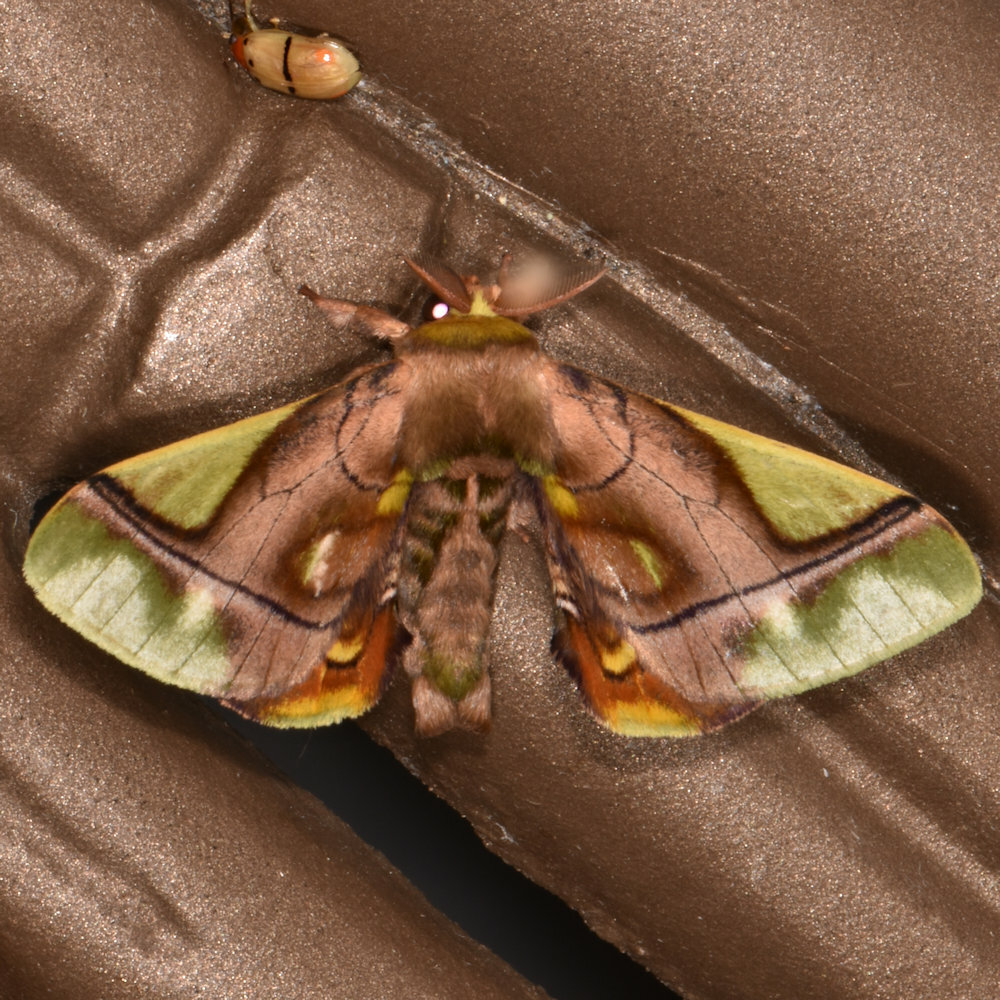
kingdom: Animalia
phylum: Arthropoda
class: Insecta
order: Lepidoptera
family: Bombycidae
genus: Epia
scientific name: Epia muscosa
